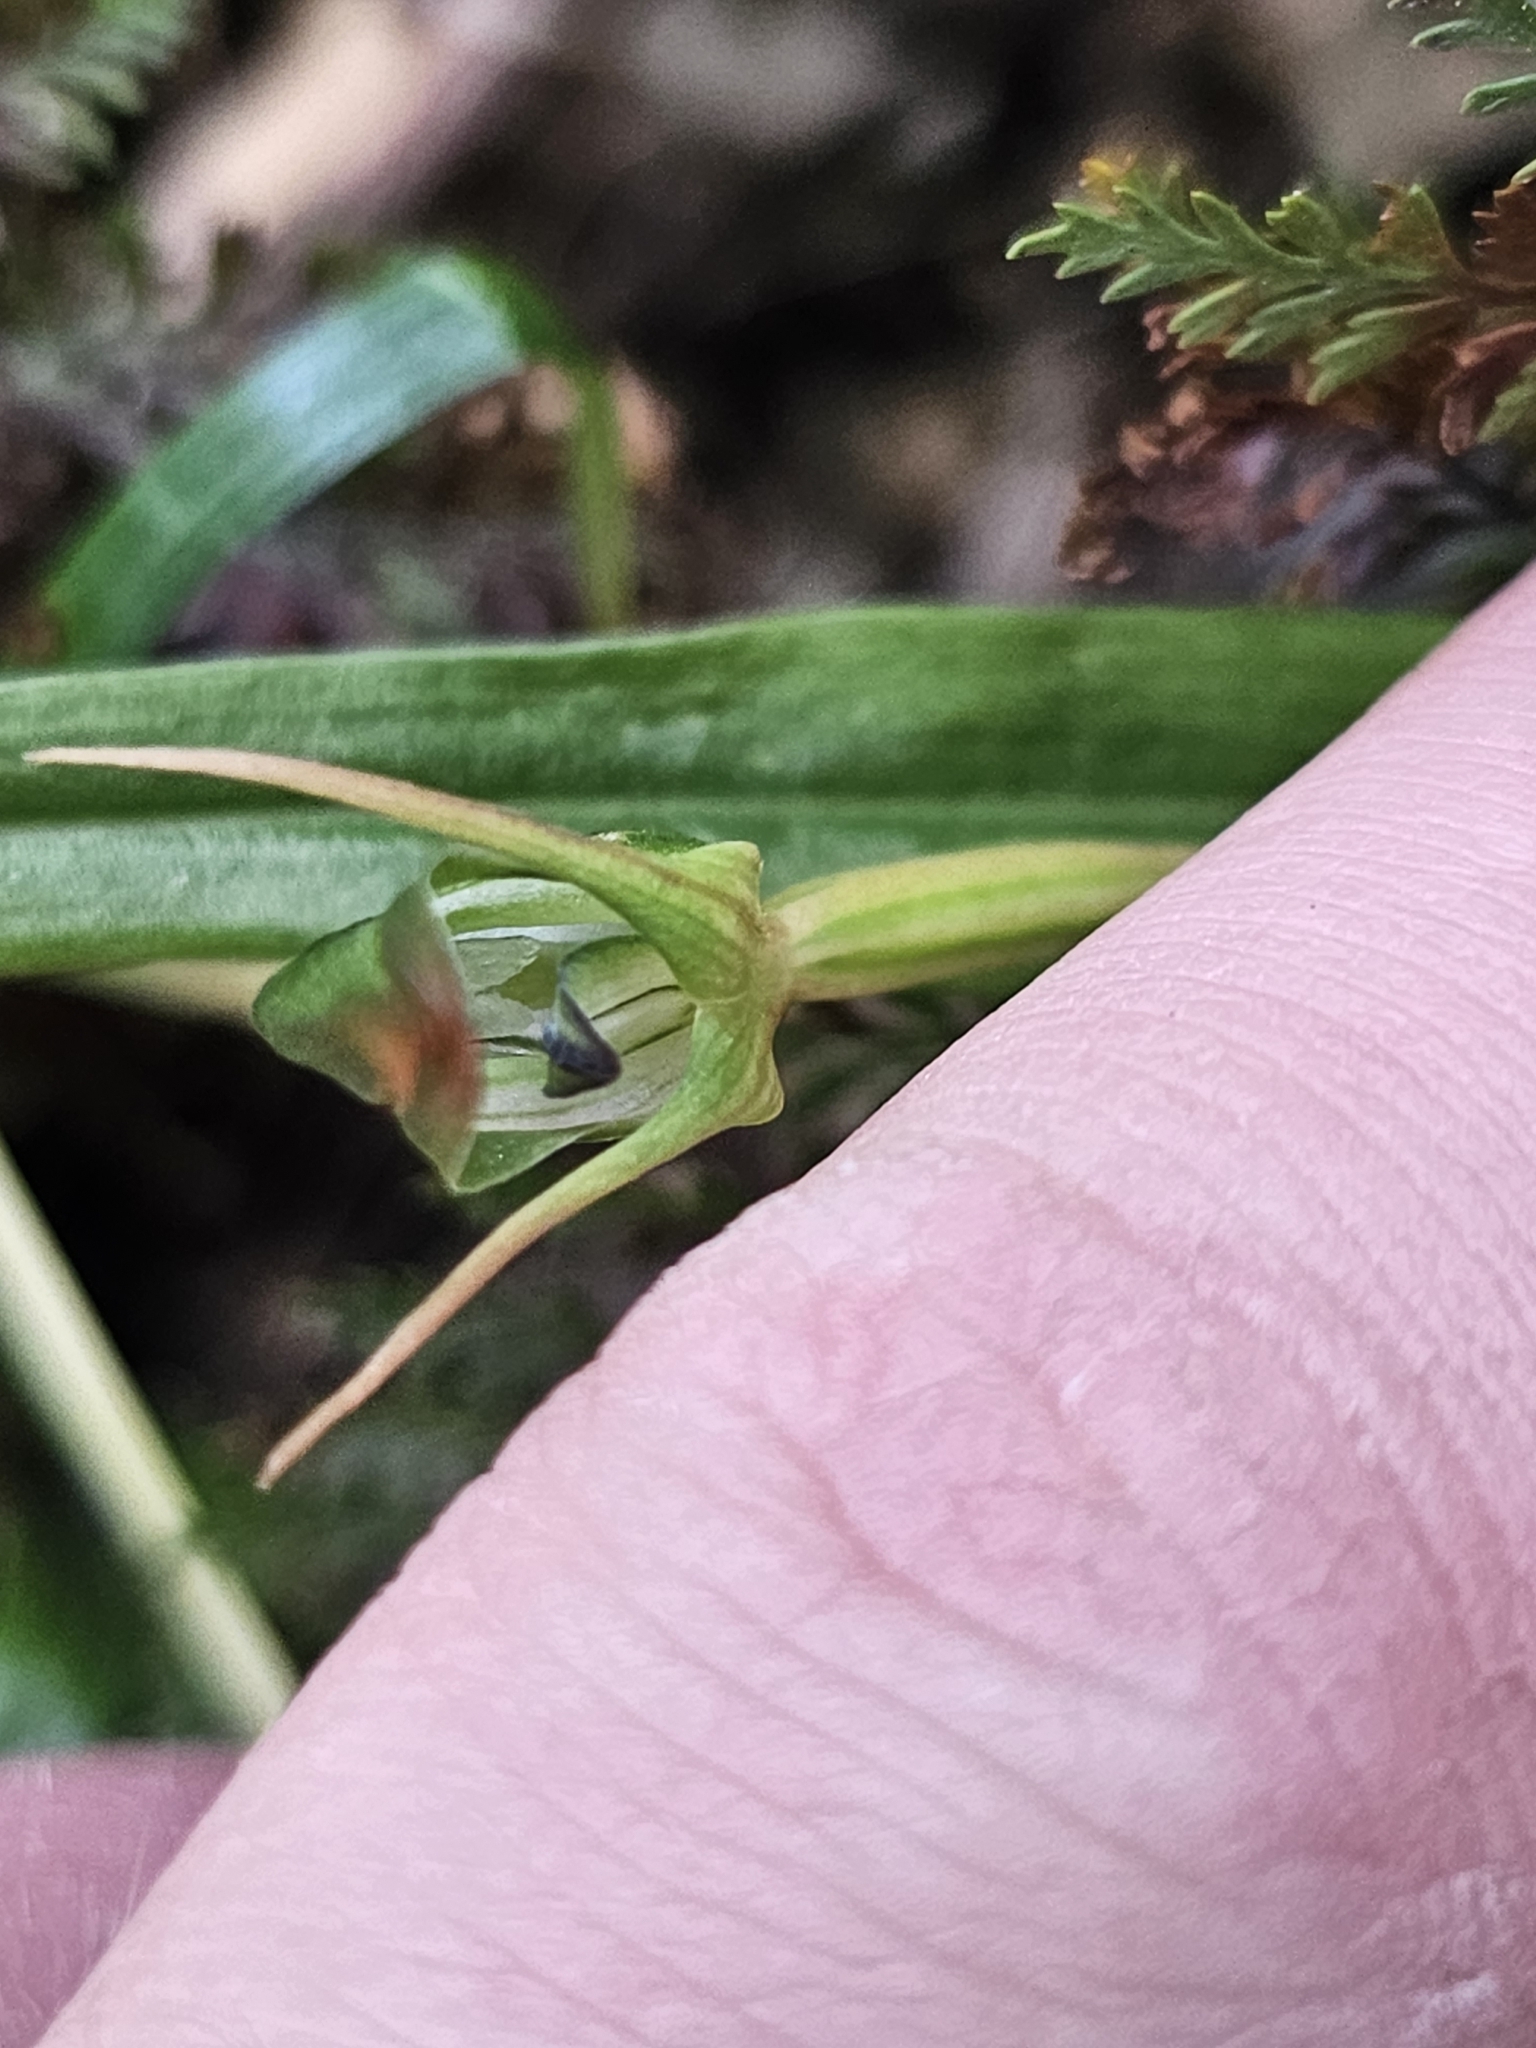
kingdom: Plantae
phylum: Tracheophyta
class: Liliopsida
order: Asparagales
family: Orchidaceae
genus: Pterostylis
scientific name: Pterostylis graminea
